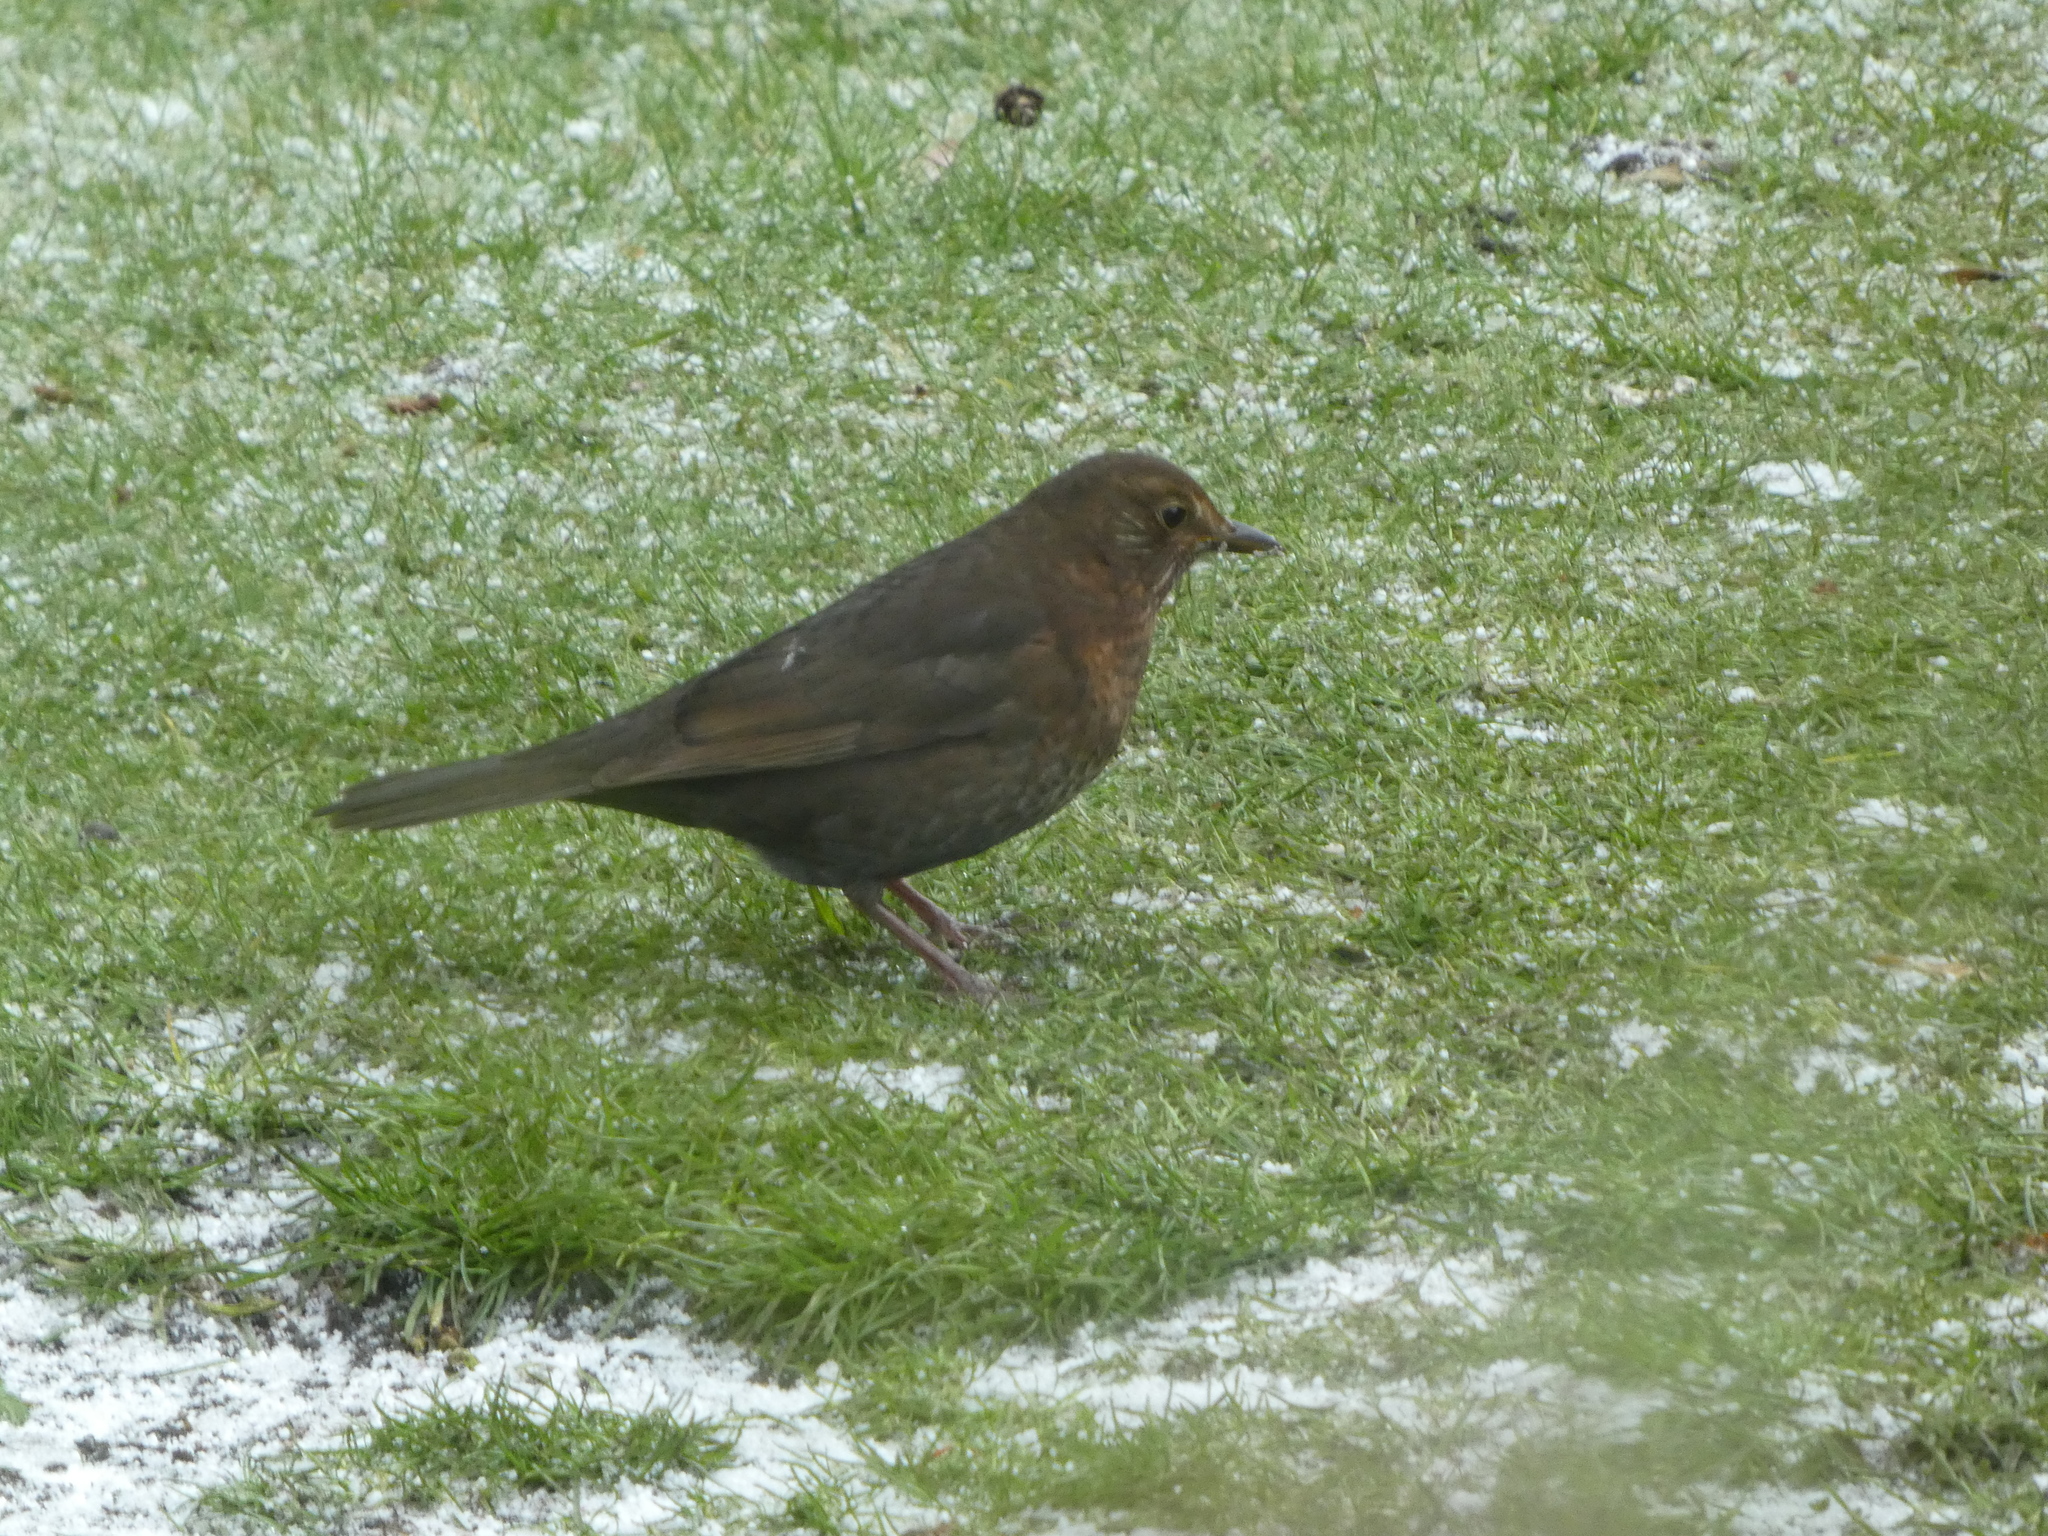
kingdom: Animalia
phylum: Chordata
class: Aves
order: Passeriformes
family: Turdidae
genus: Turdus
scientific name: Turdus merula
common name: Common blackbird
